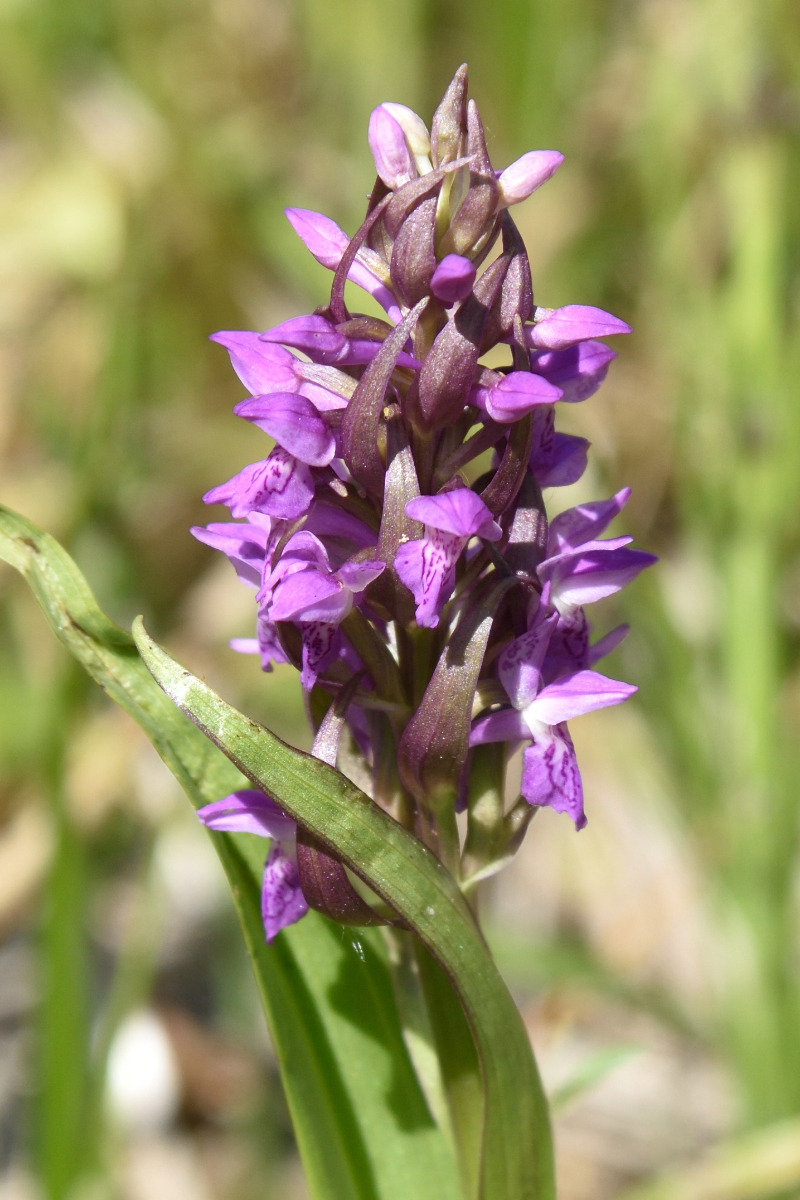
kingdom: Plantae
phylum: Tracheophyta
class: Liliopsida
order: Asparagales
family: Orchidaceae
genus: Dactylorhiza
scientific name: Dactylorhiza incarnata
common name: Early marsh-orchid
